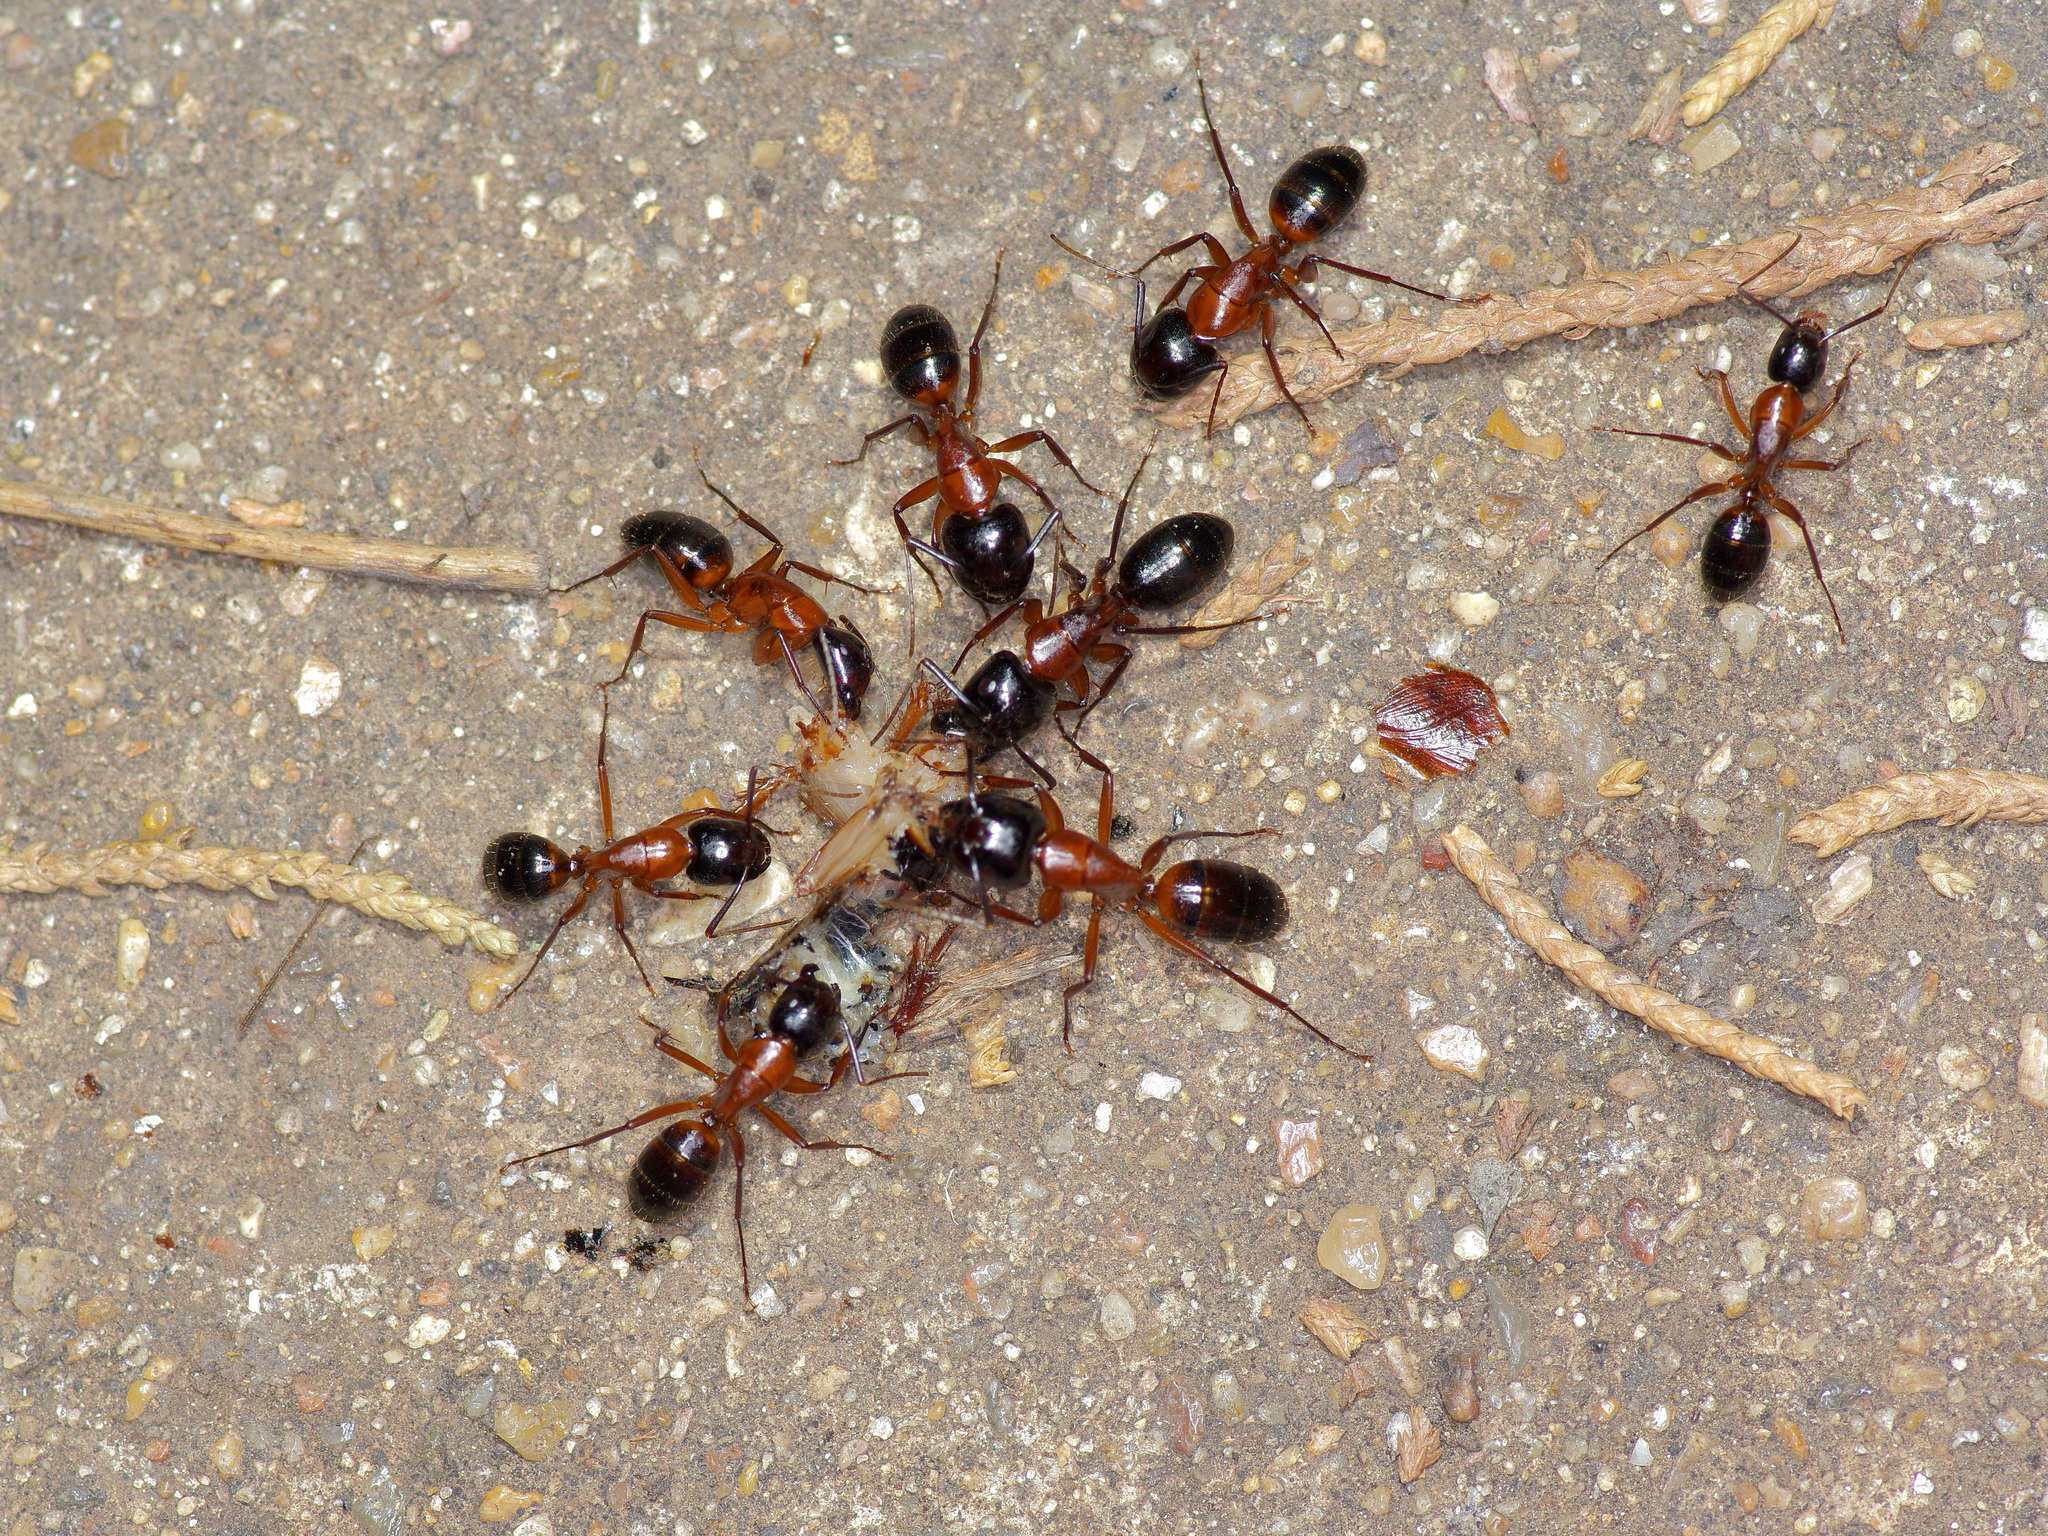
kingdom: Animalia
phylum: Arthropoda
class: Insecta
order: Hymenoptera
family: Formicidae
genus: Camponotus
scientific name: Camponotus texanus
